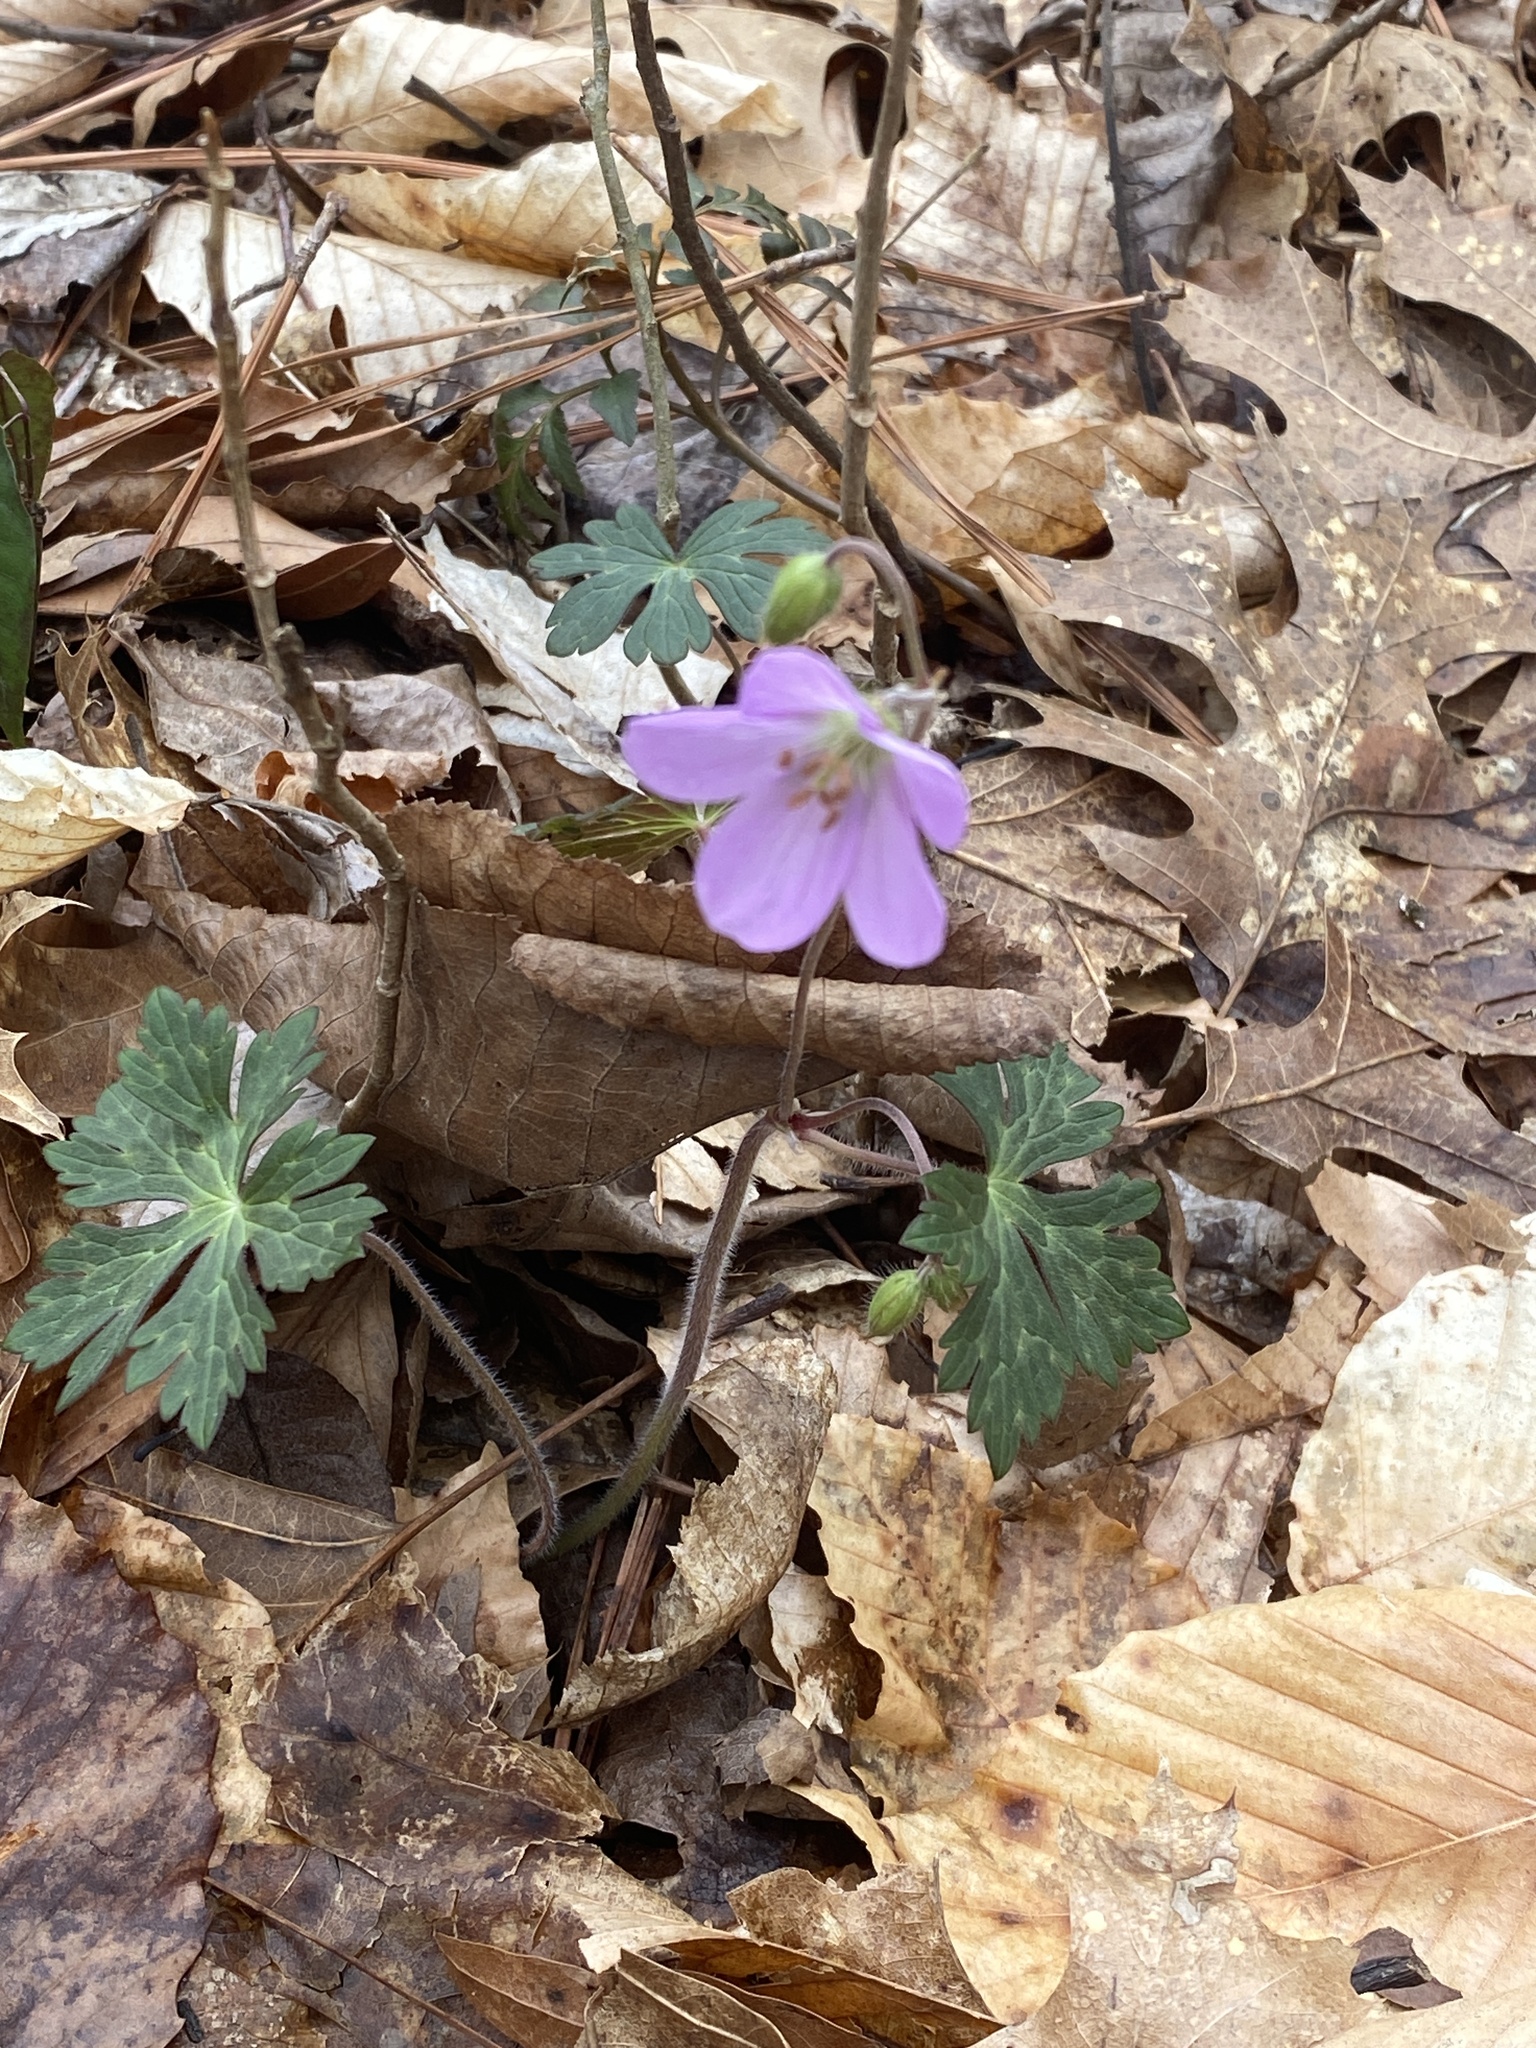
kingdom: Plantae
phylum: Tracheophyta
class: Magnoliopsida
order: Geraniales
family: Geraniaceae
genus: Geranium
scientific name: Geranium maculatum
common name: Spotted geranium
